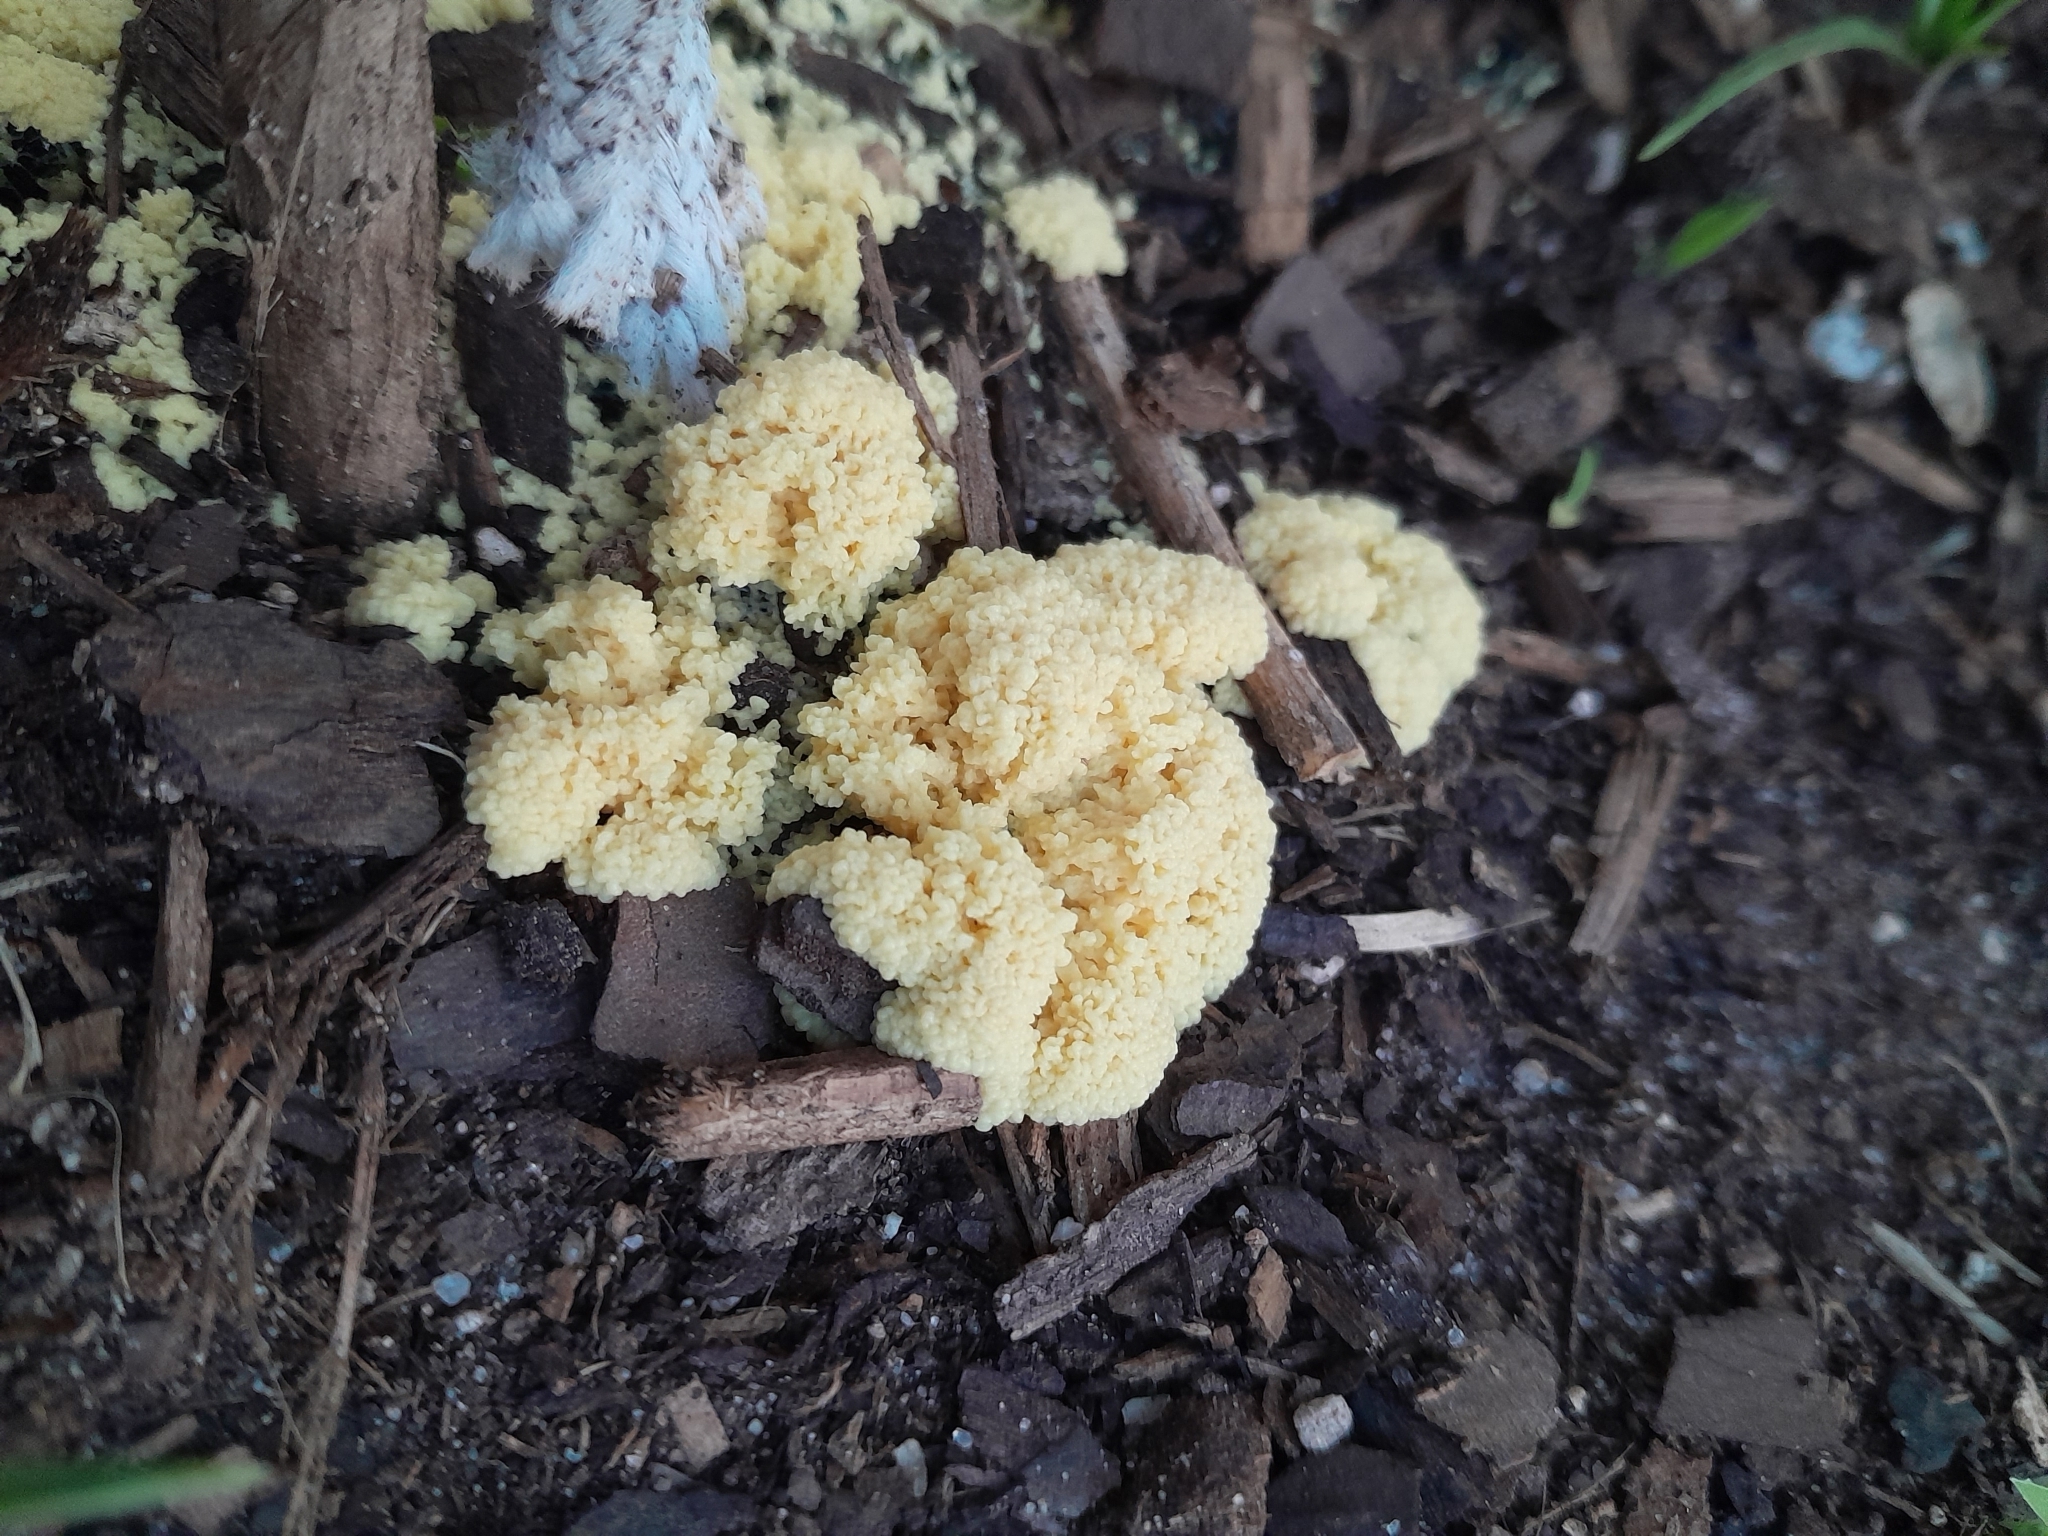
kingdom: Protozoa
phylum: Mycetozoa
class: Myxomycetes
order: Physarales
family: Physaraceae
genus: Fuligo
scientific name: Fuligo septica
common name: Dog vomit slime mold
